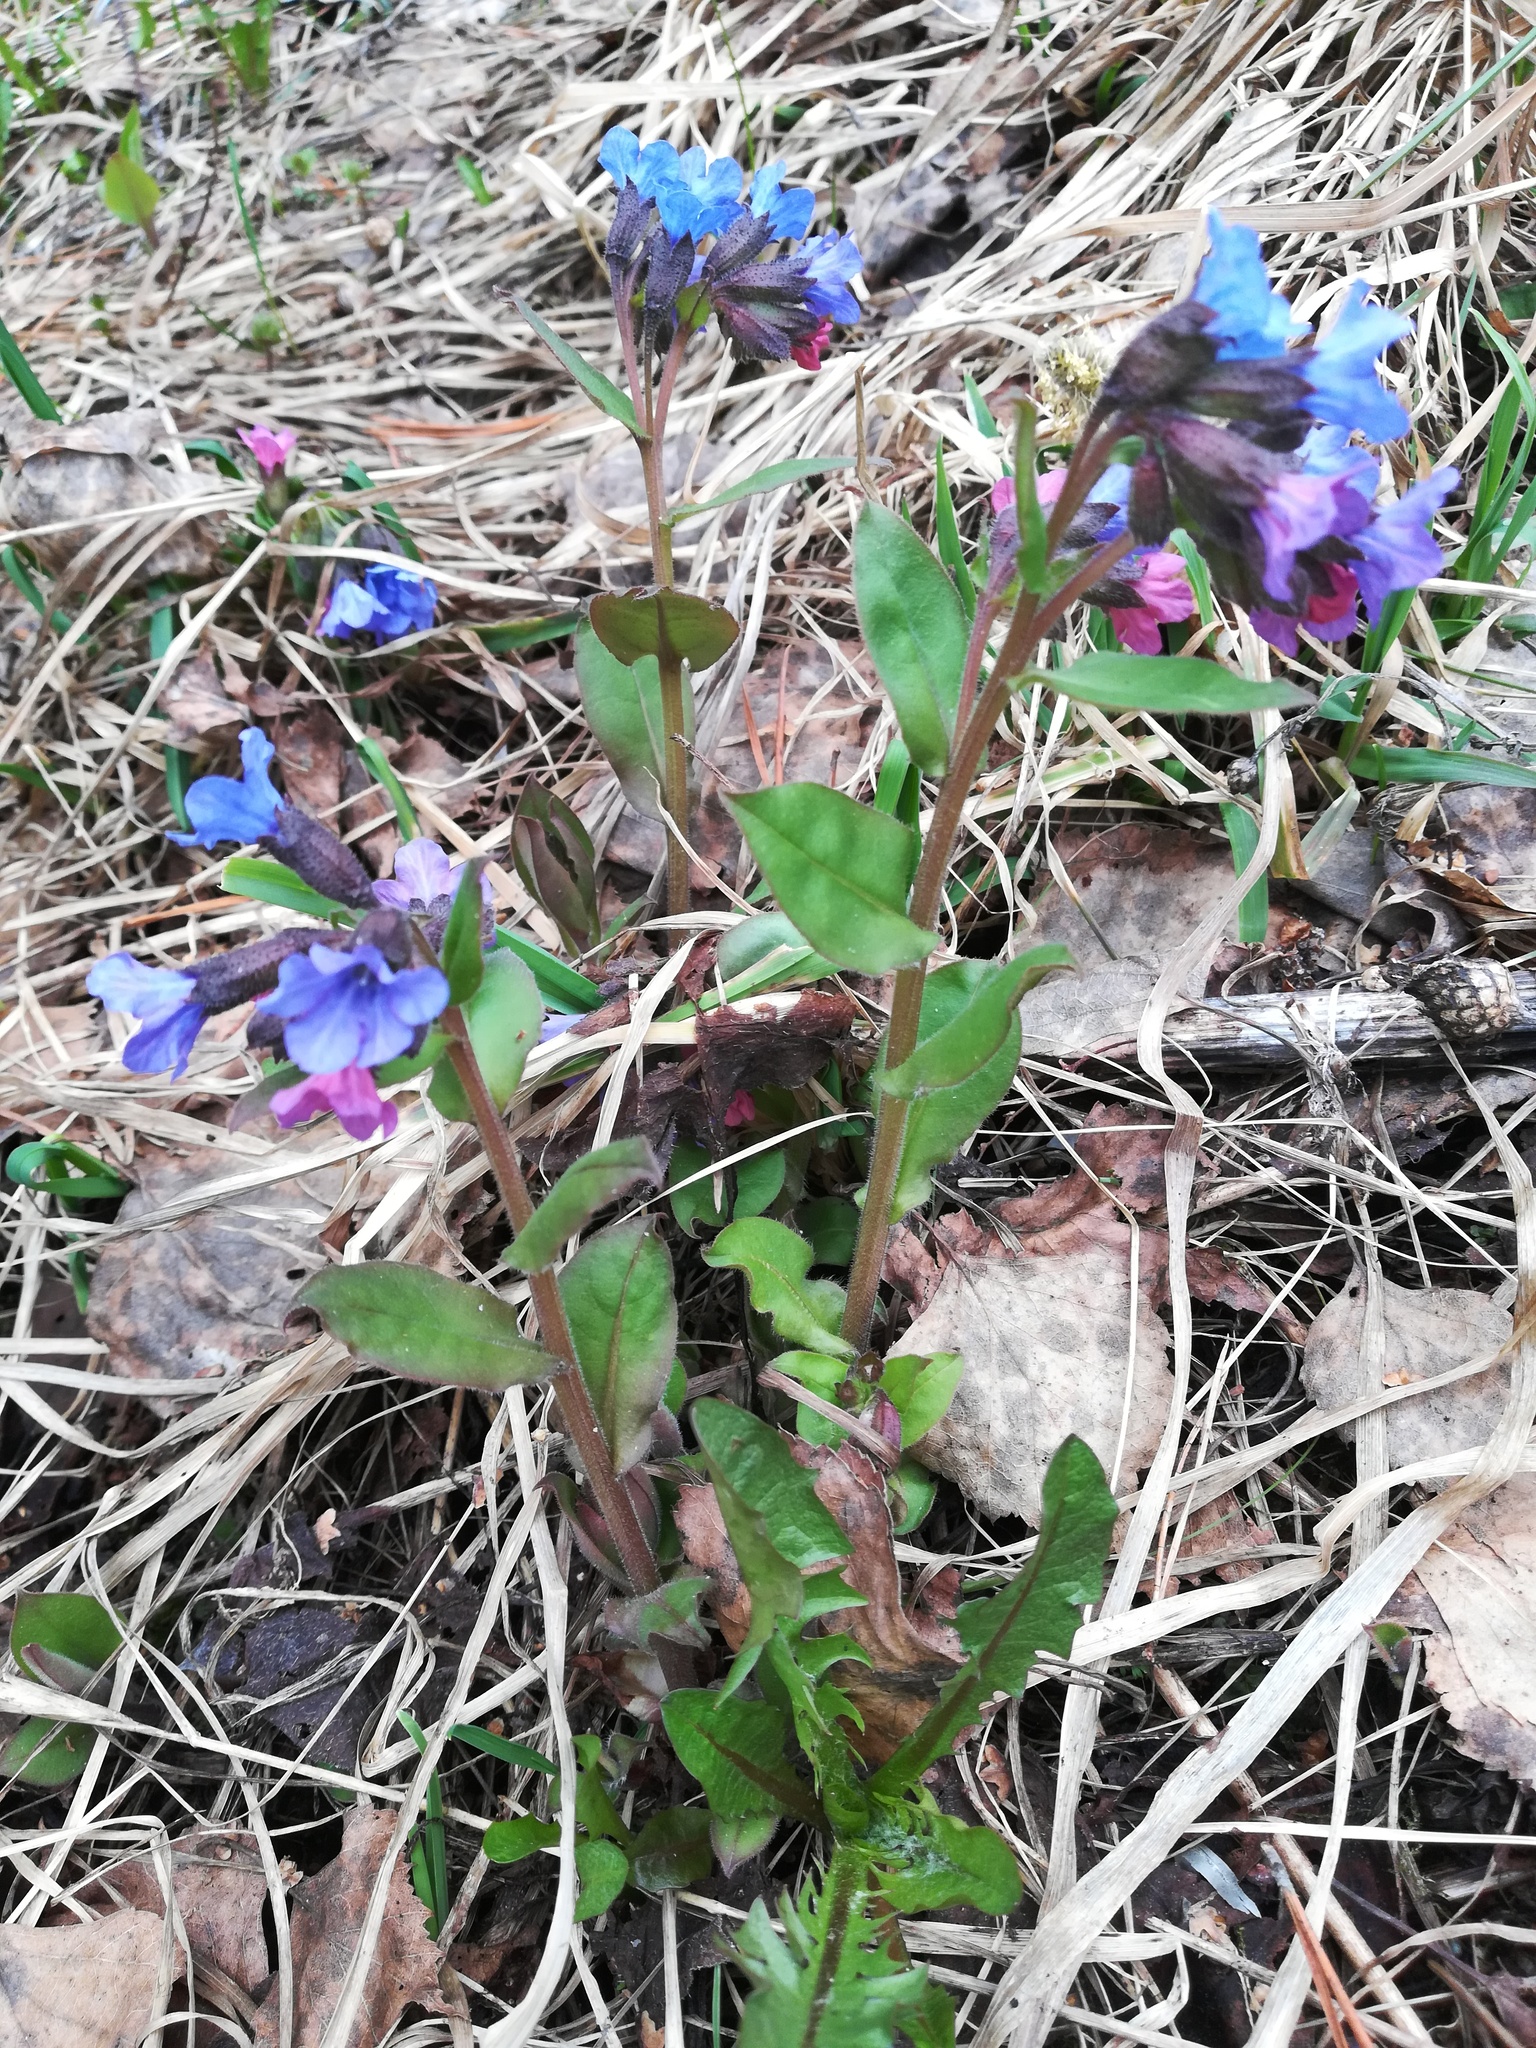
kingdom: Plantae
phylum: Tracheophyta
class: Magnoliopsida
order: Boraginales
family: Boraginaceae
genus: Pulmonaria
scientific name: Pulmonaria obscura
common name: Suffolk lungwort
